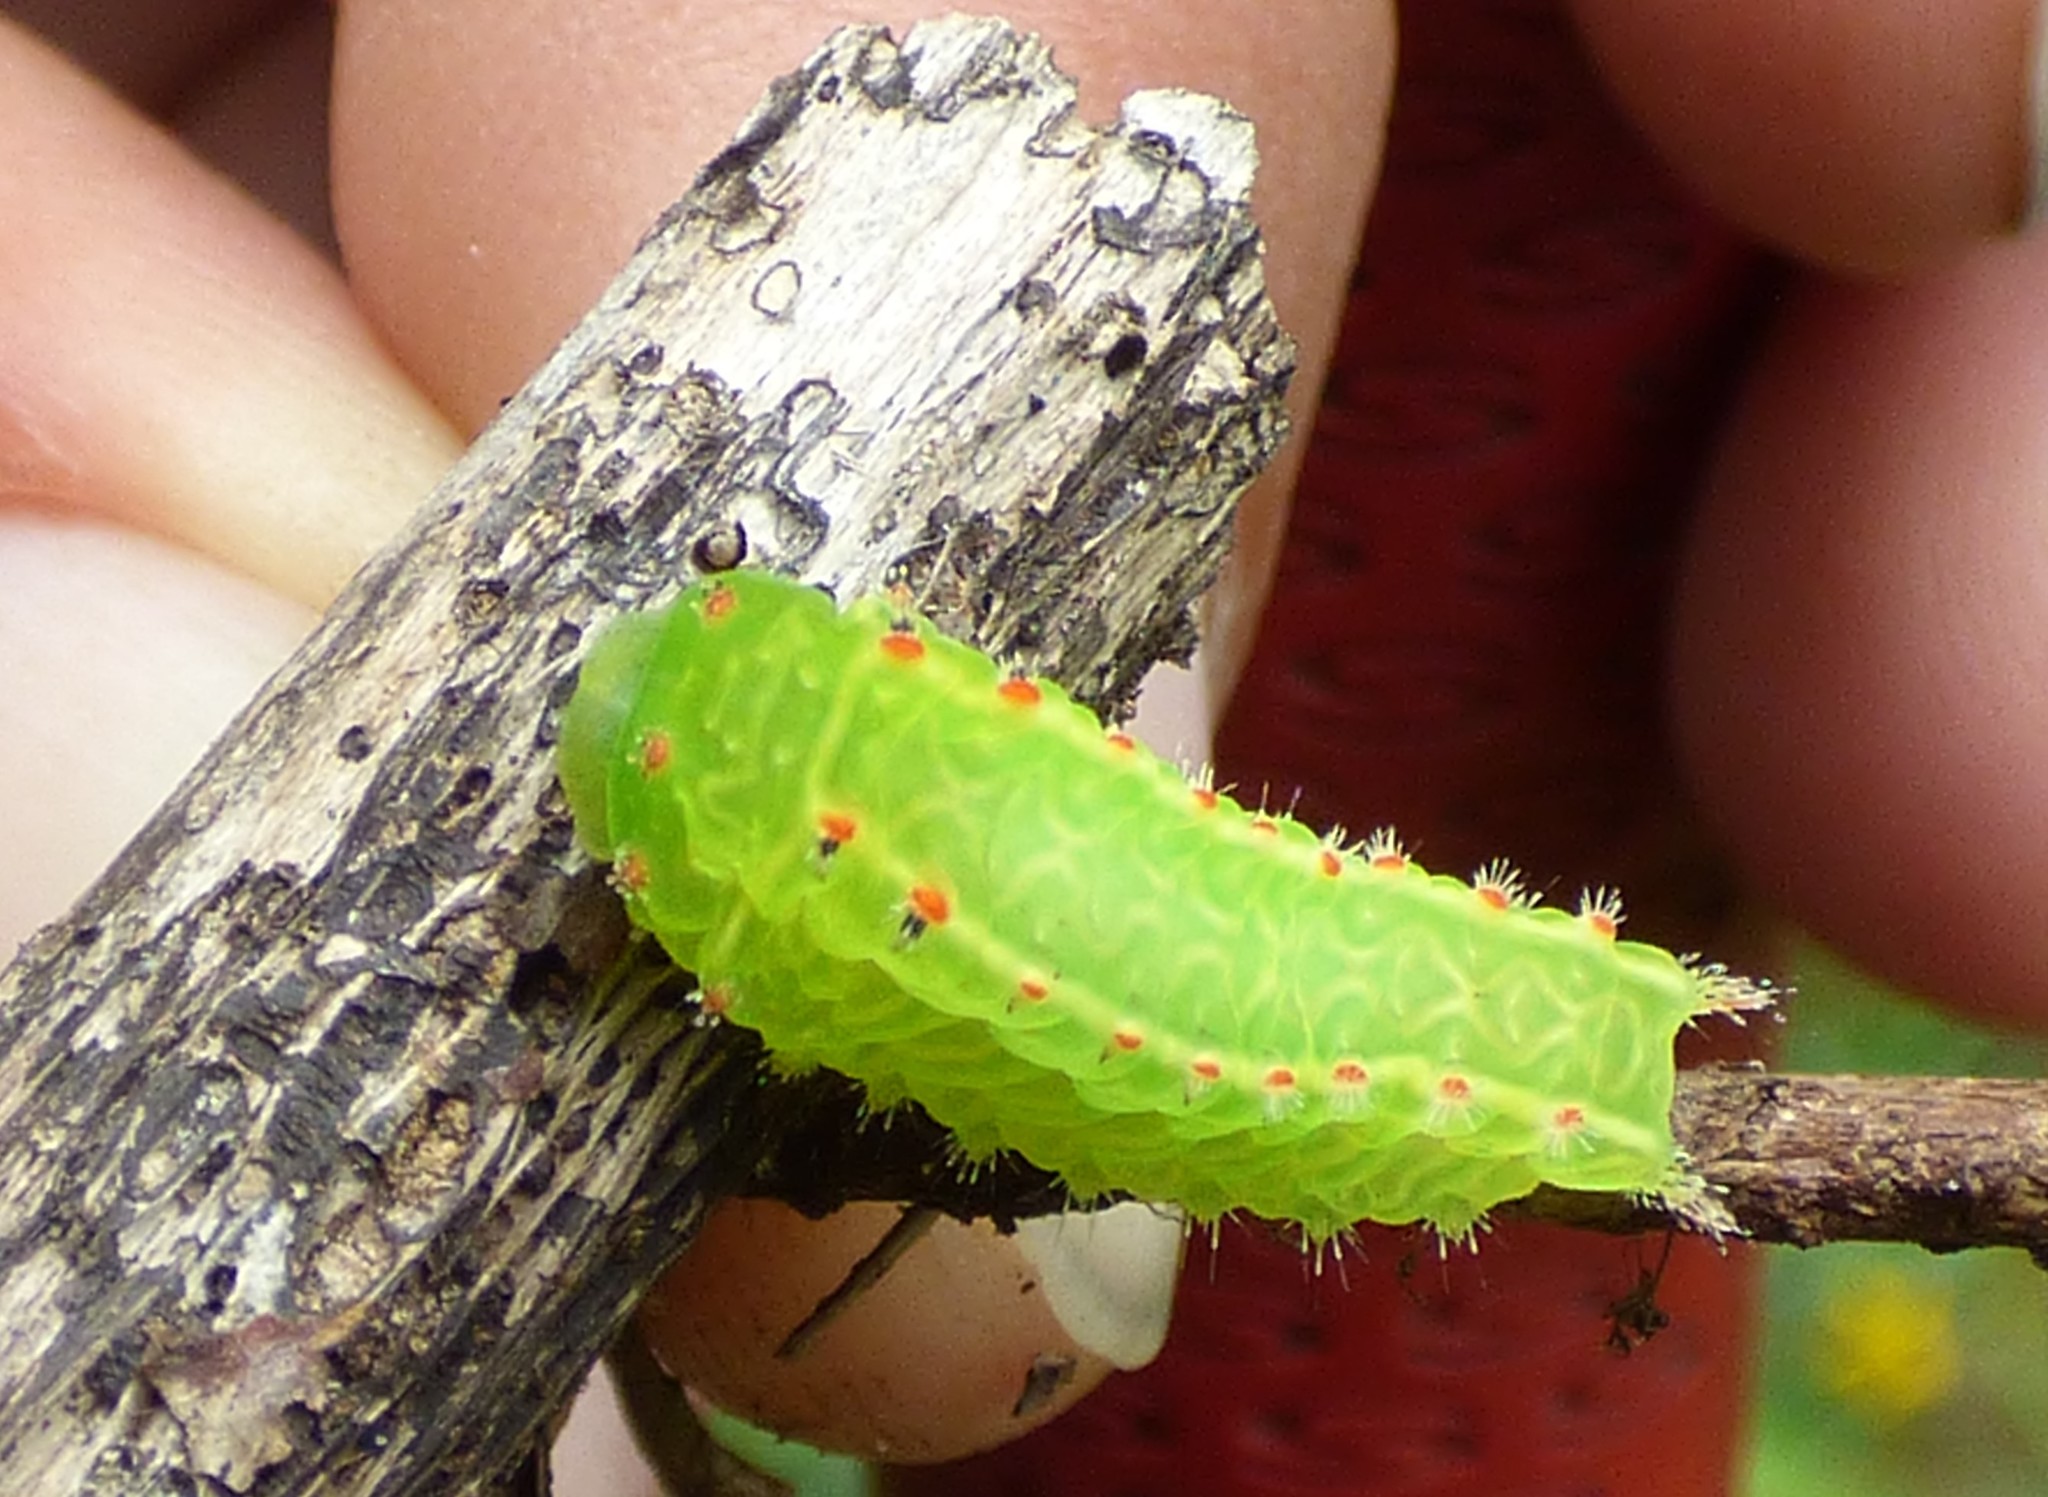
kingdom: Animalia
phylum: Arthropoda
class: Insecta
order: Lepidoptera
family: Limacodidae
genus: Natada
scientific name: Natada nasoni
